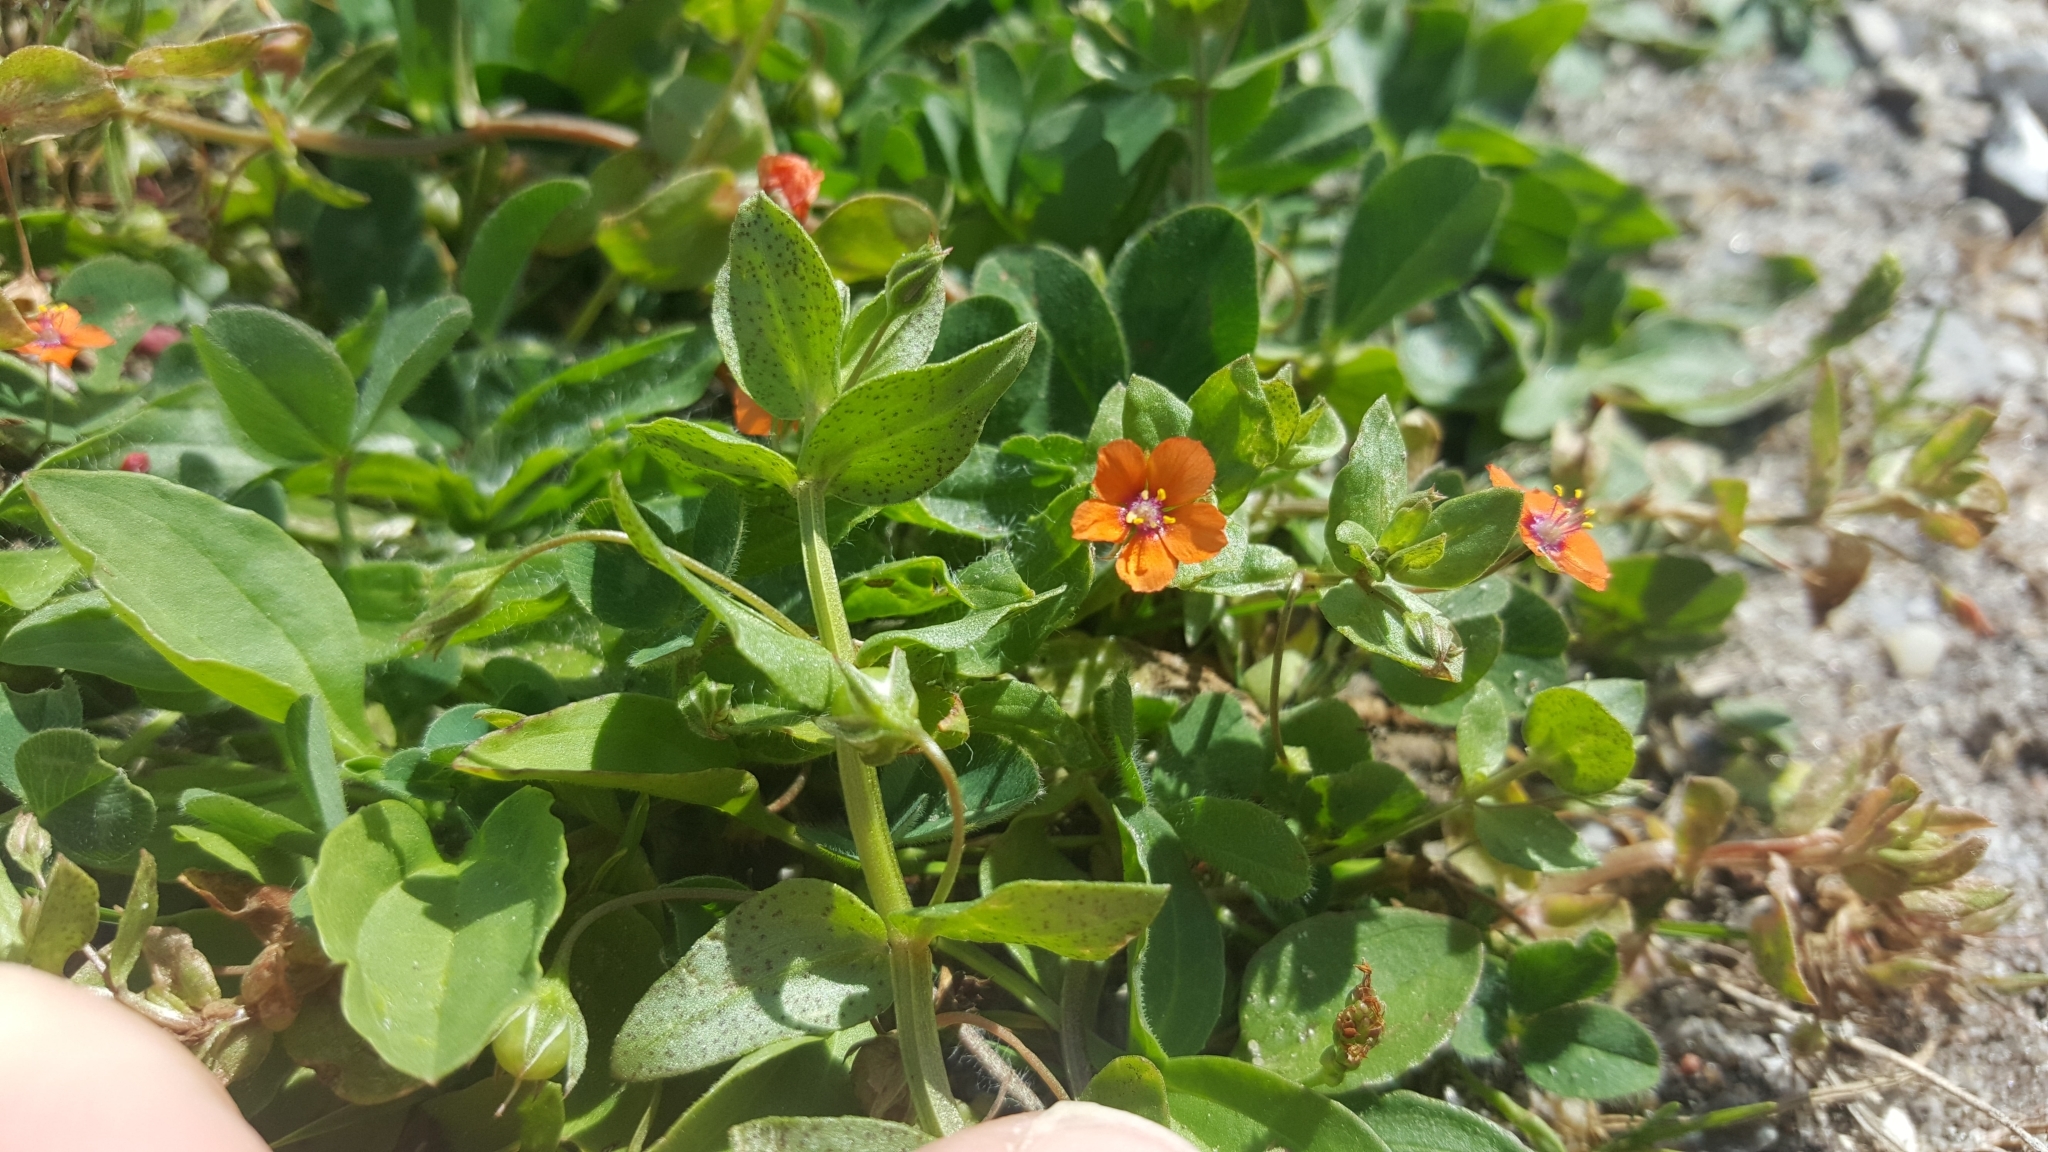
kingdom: Plantae
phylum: Tracheophyta
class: Magnoliopsida
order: Ericales
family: Primulaceae
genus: Lysimachia
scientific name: Lysimachia arvensis
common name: Scarlet pimpernel
